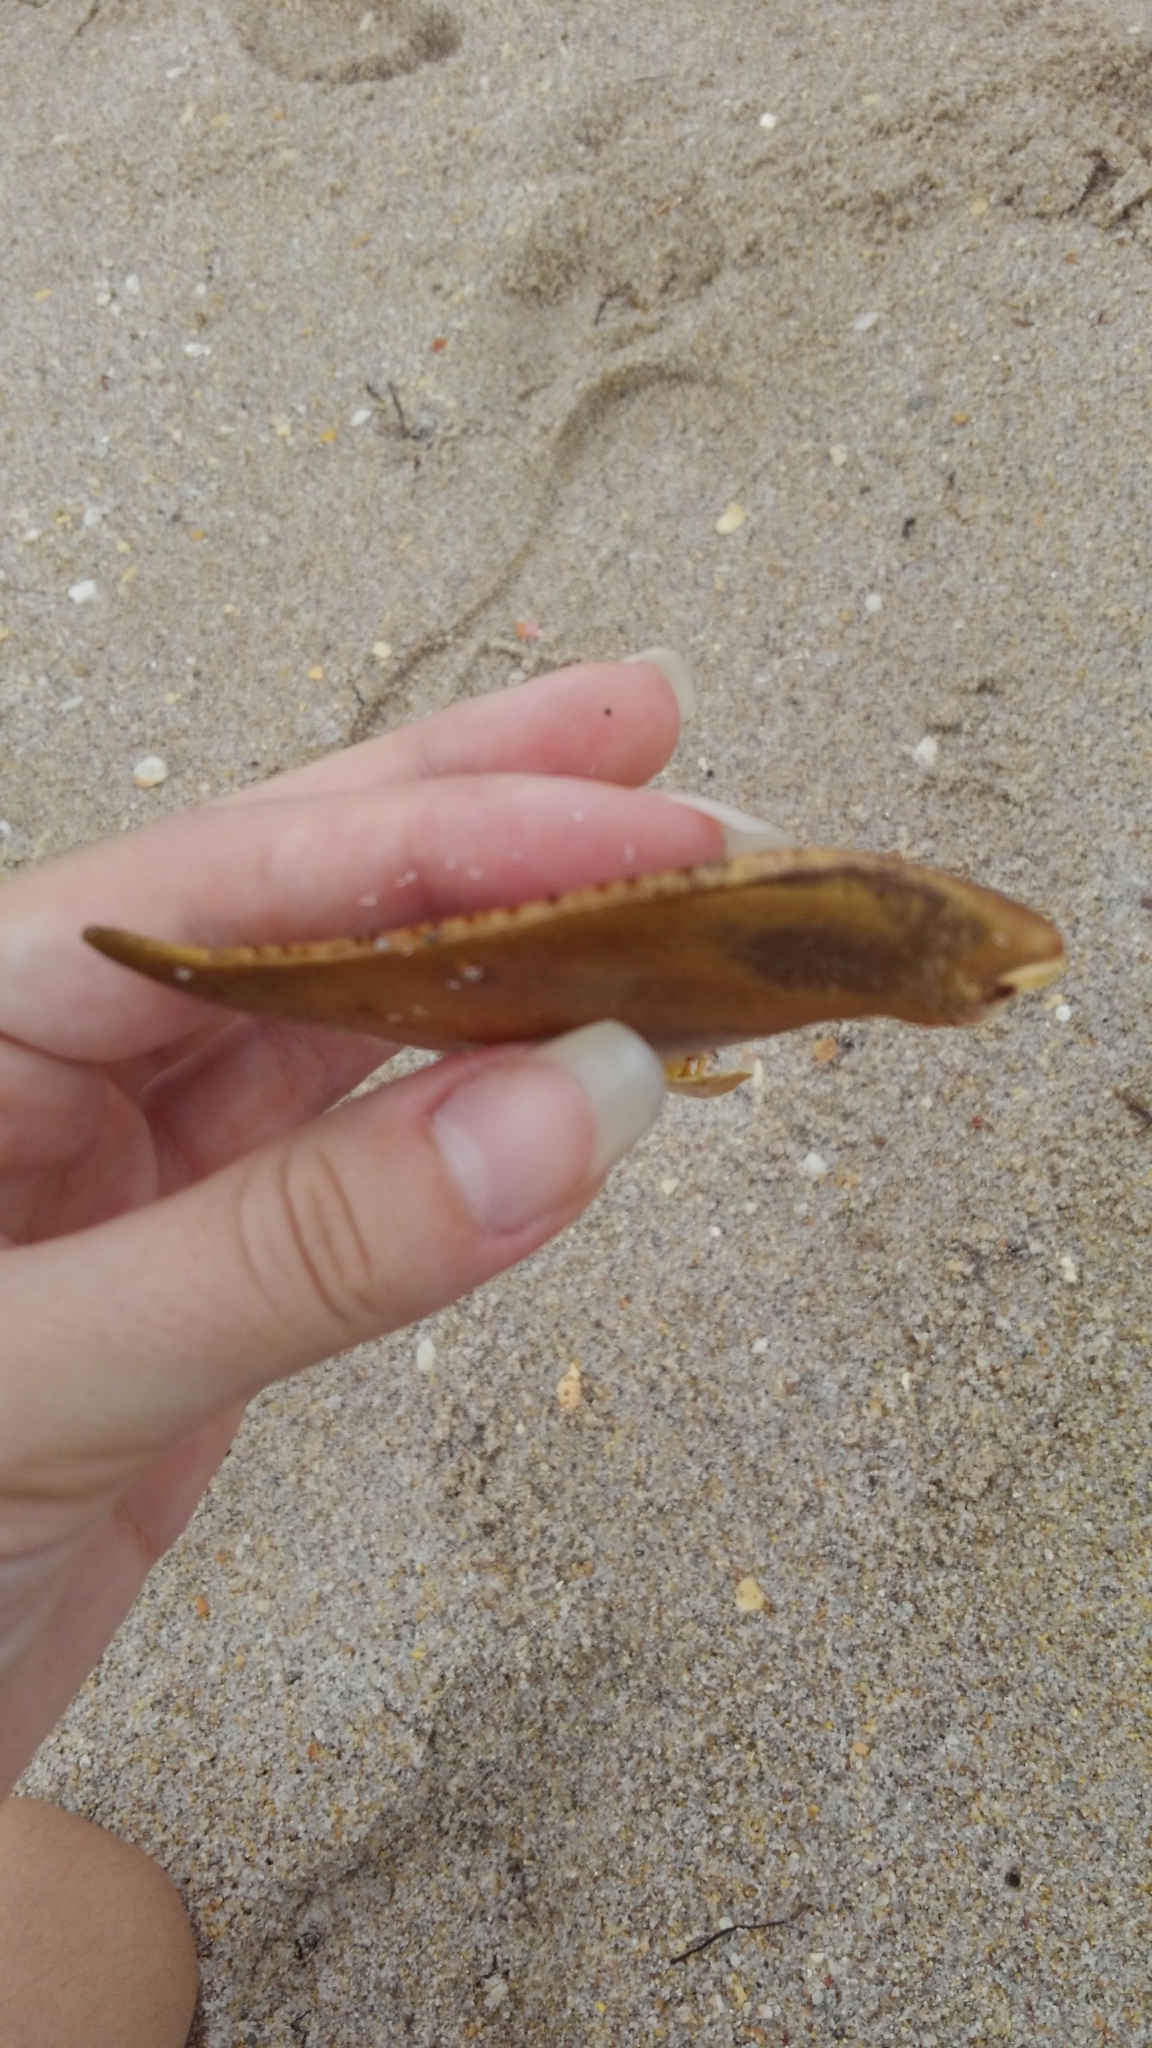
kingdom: Animalia
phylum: Arthropoda
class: Merostomata
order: Xiphosurida
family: Limulidae
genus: Limulus
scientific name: Limulus polyphemus
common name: Horseshoe crab
